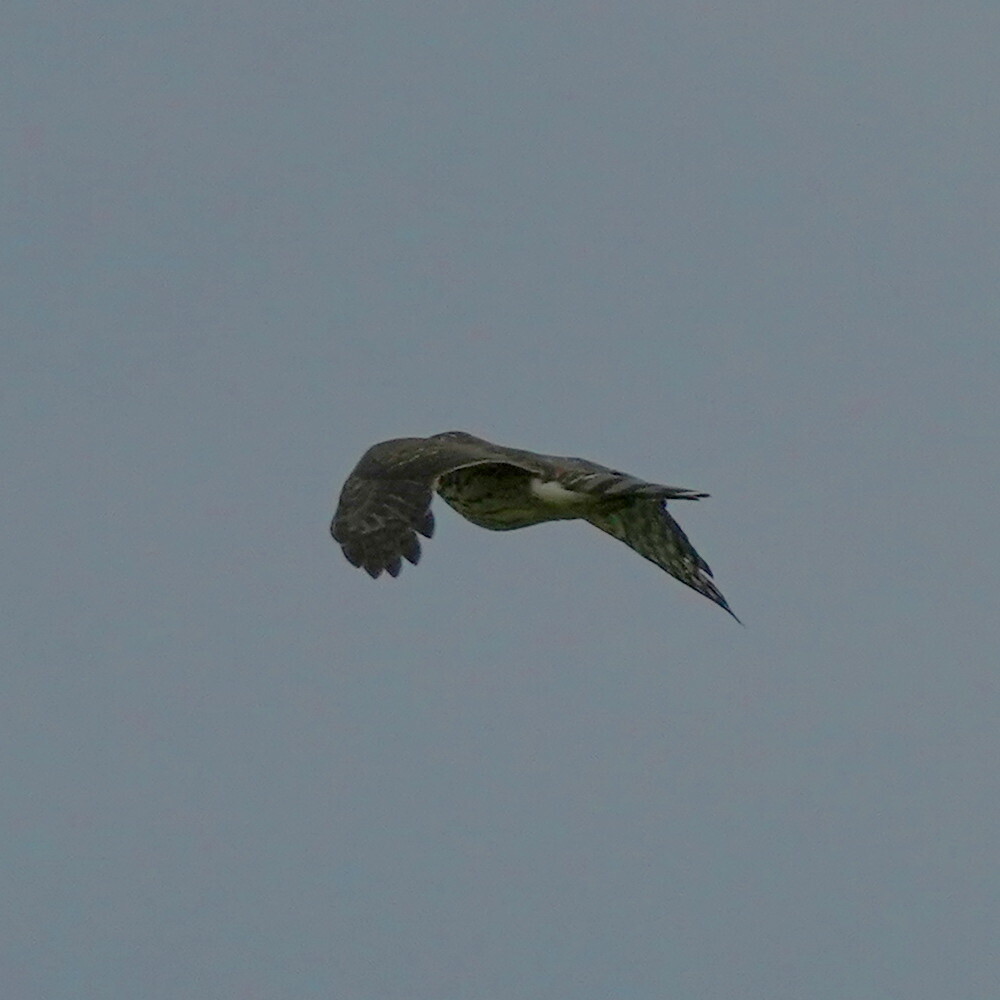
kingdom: Animalia
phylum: Chordata
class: Aves
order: Accipitriformes
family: Accipitridae
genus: Accipiter
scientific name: Accipiter cooperii
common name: Cooper's hawk
